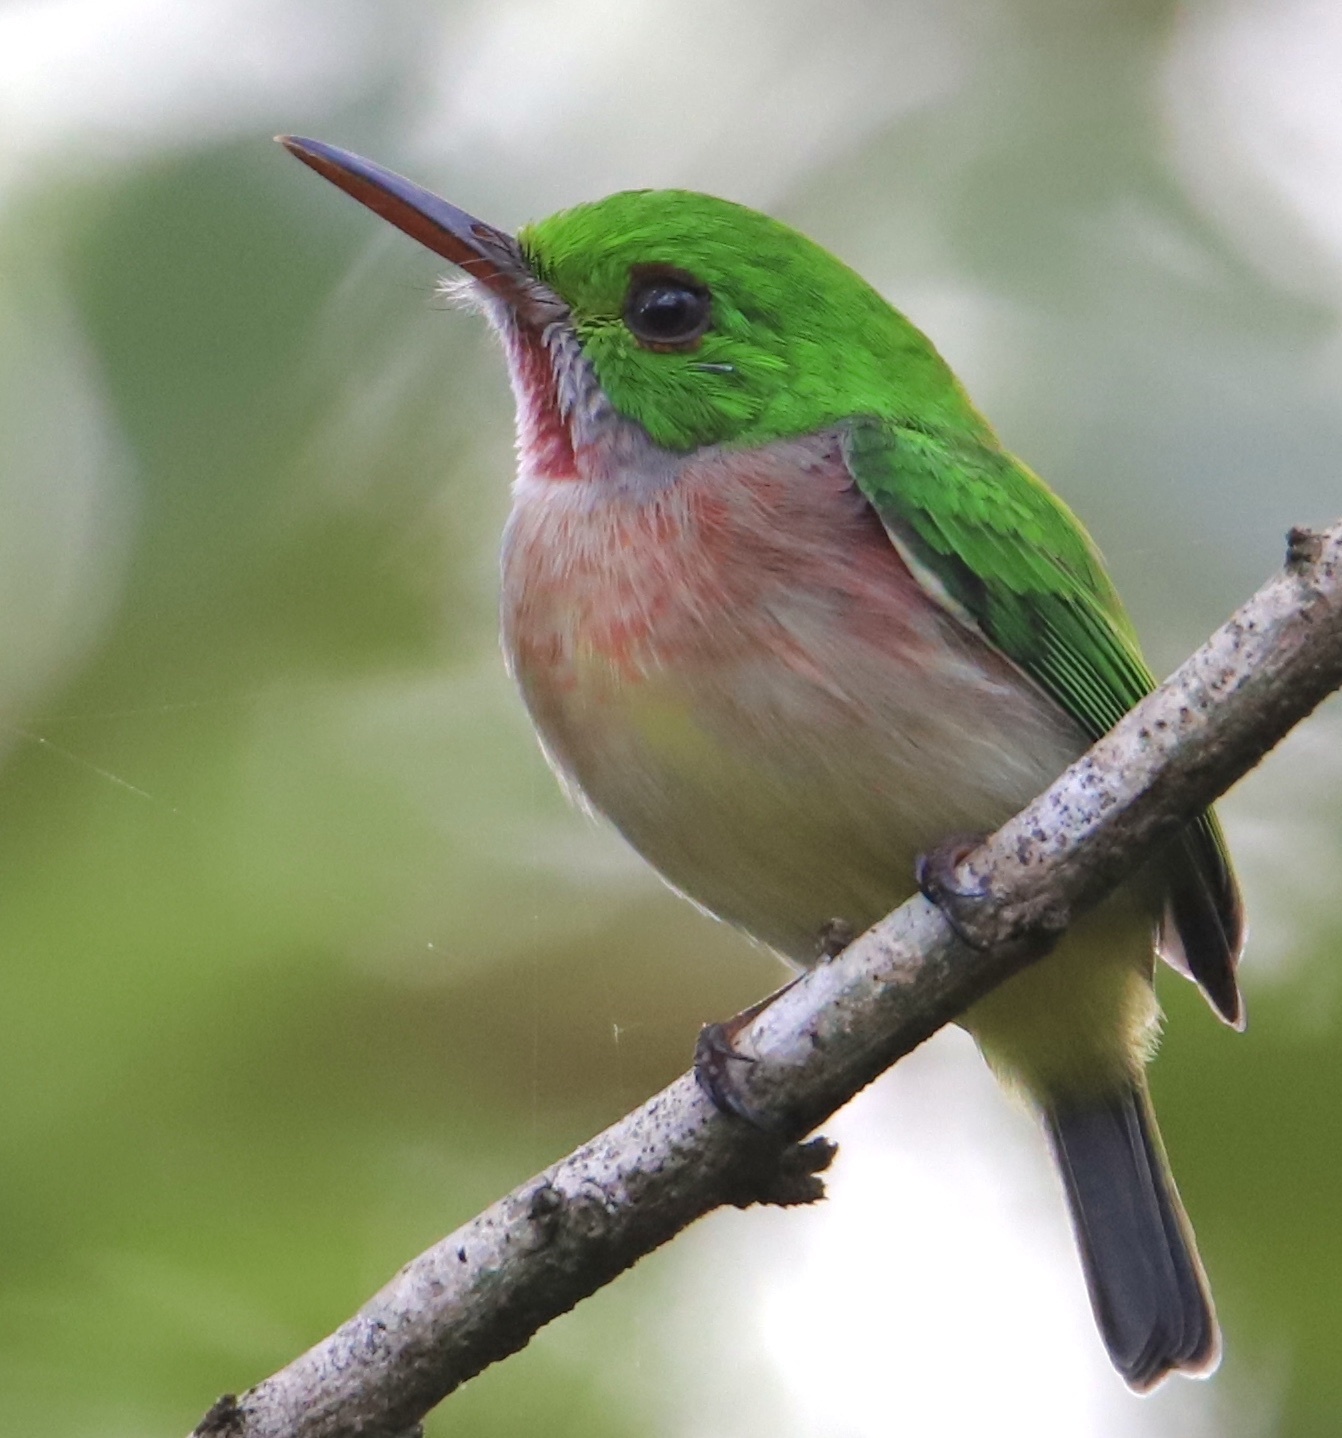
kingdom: Animalia
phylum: Chordata
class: Aves
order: Coraciiformes
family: Todidae
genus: Todus
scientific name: Todus subulatus
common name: Broad-billed tody
